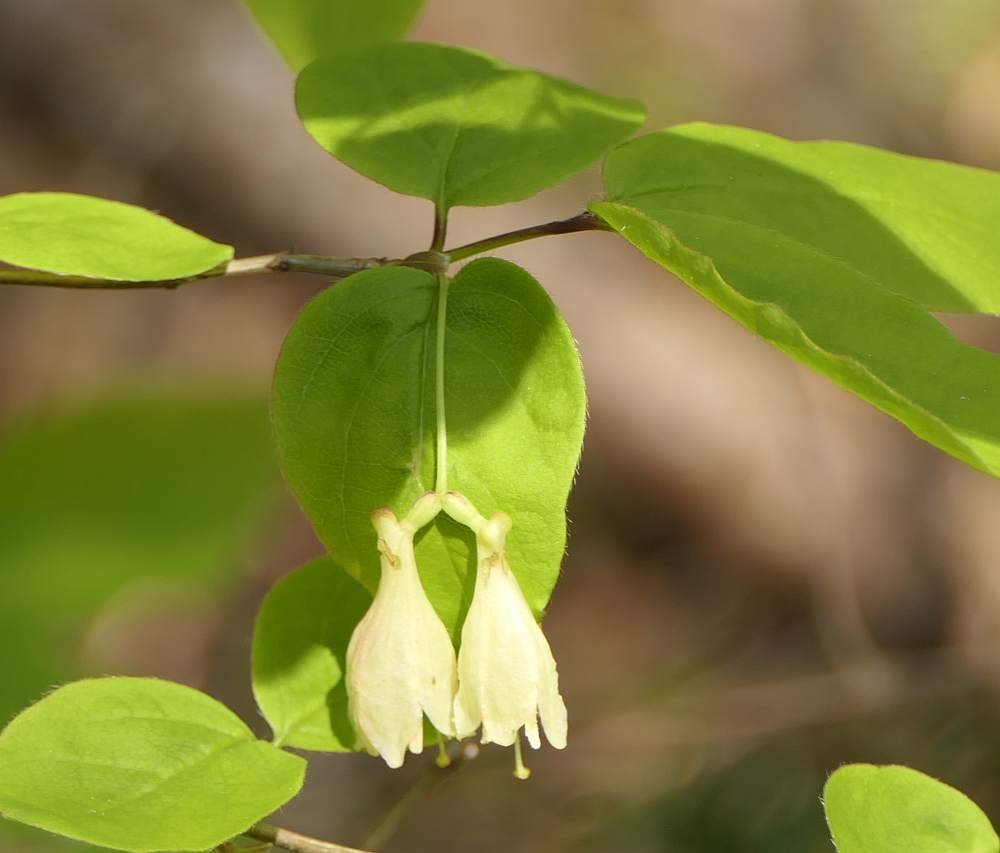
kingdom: Plantae
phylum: Tracheophyta
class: Magnoliopsida
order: Dipsacales
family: Caprifoliaceae
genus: Lonicera
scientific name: Lonicera canadensis
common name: American fly-honeysuckle
